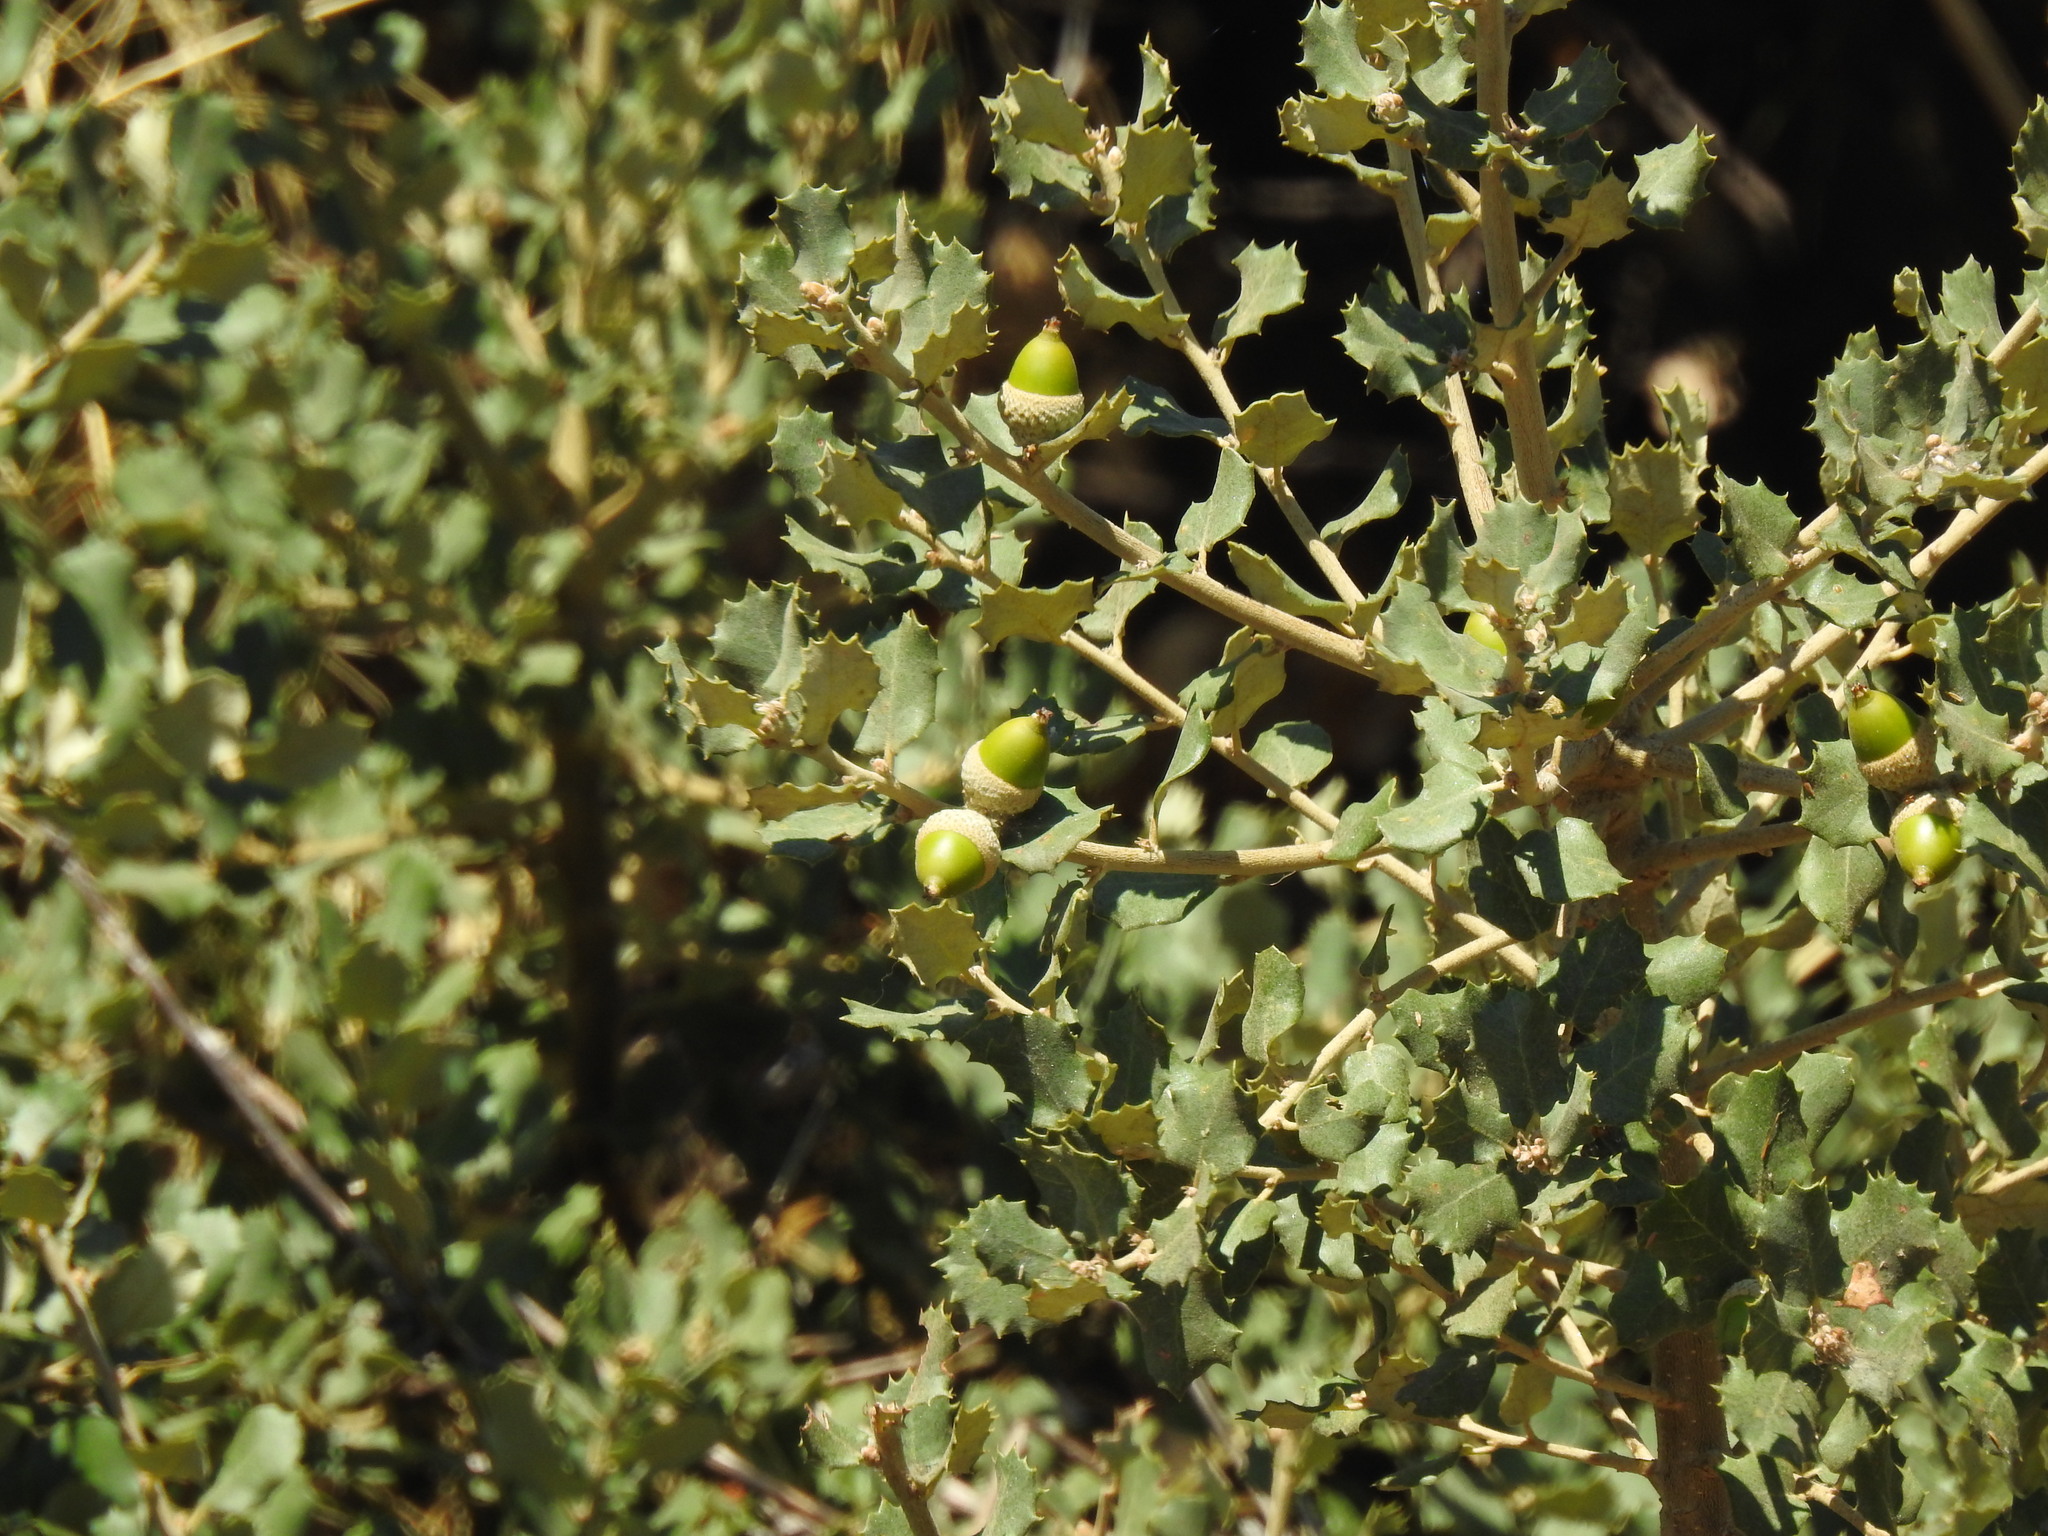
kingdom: Plantae
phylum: Tracheophyta
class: Magnoliopsida
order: Fagales
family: Fagaceae
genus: Quercus
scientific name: Quercus rotundifolia
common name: Holm oak
